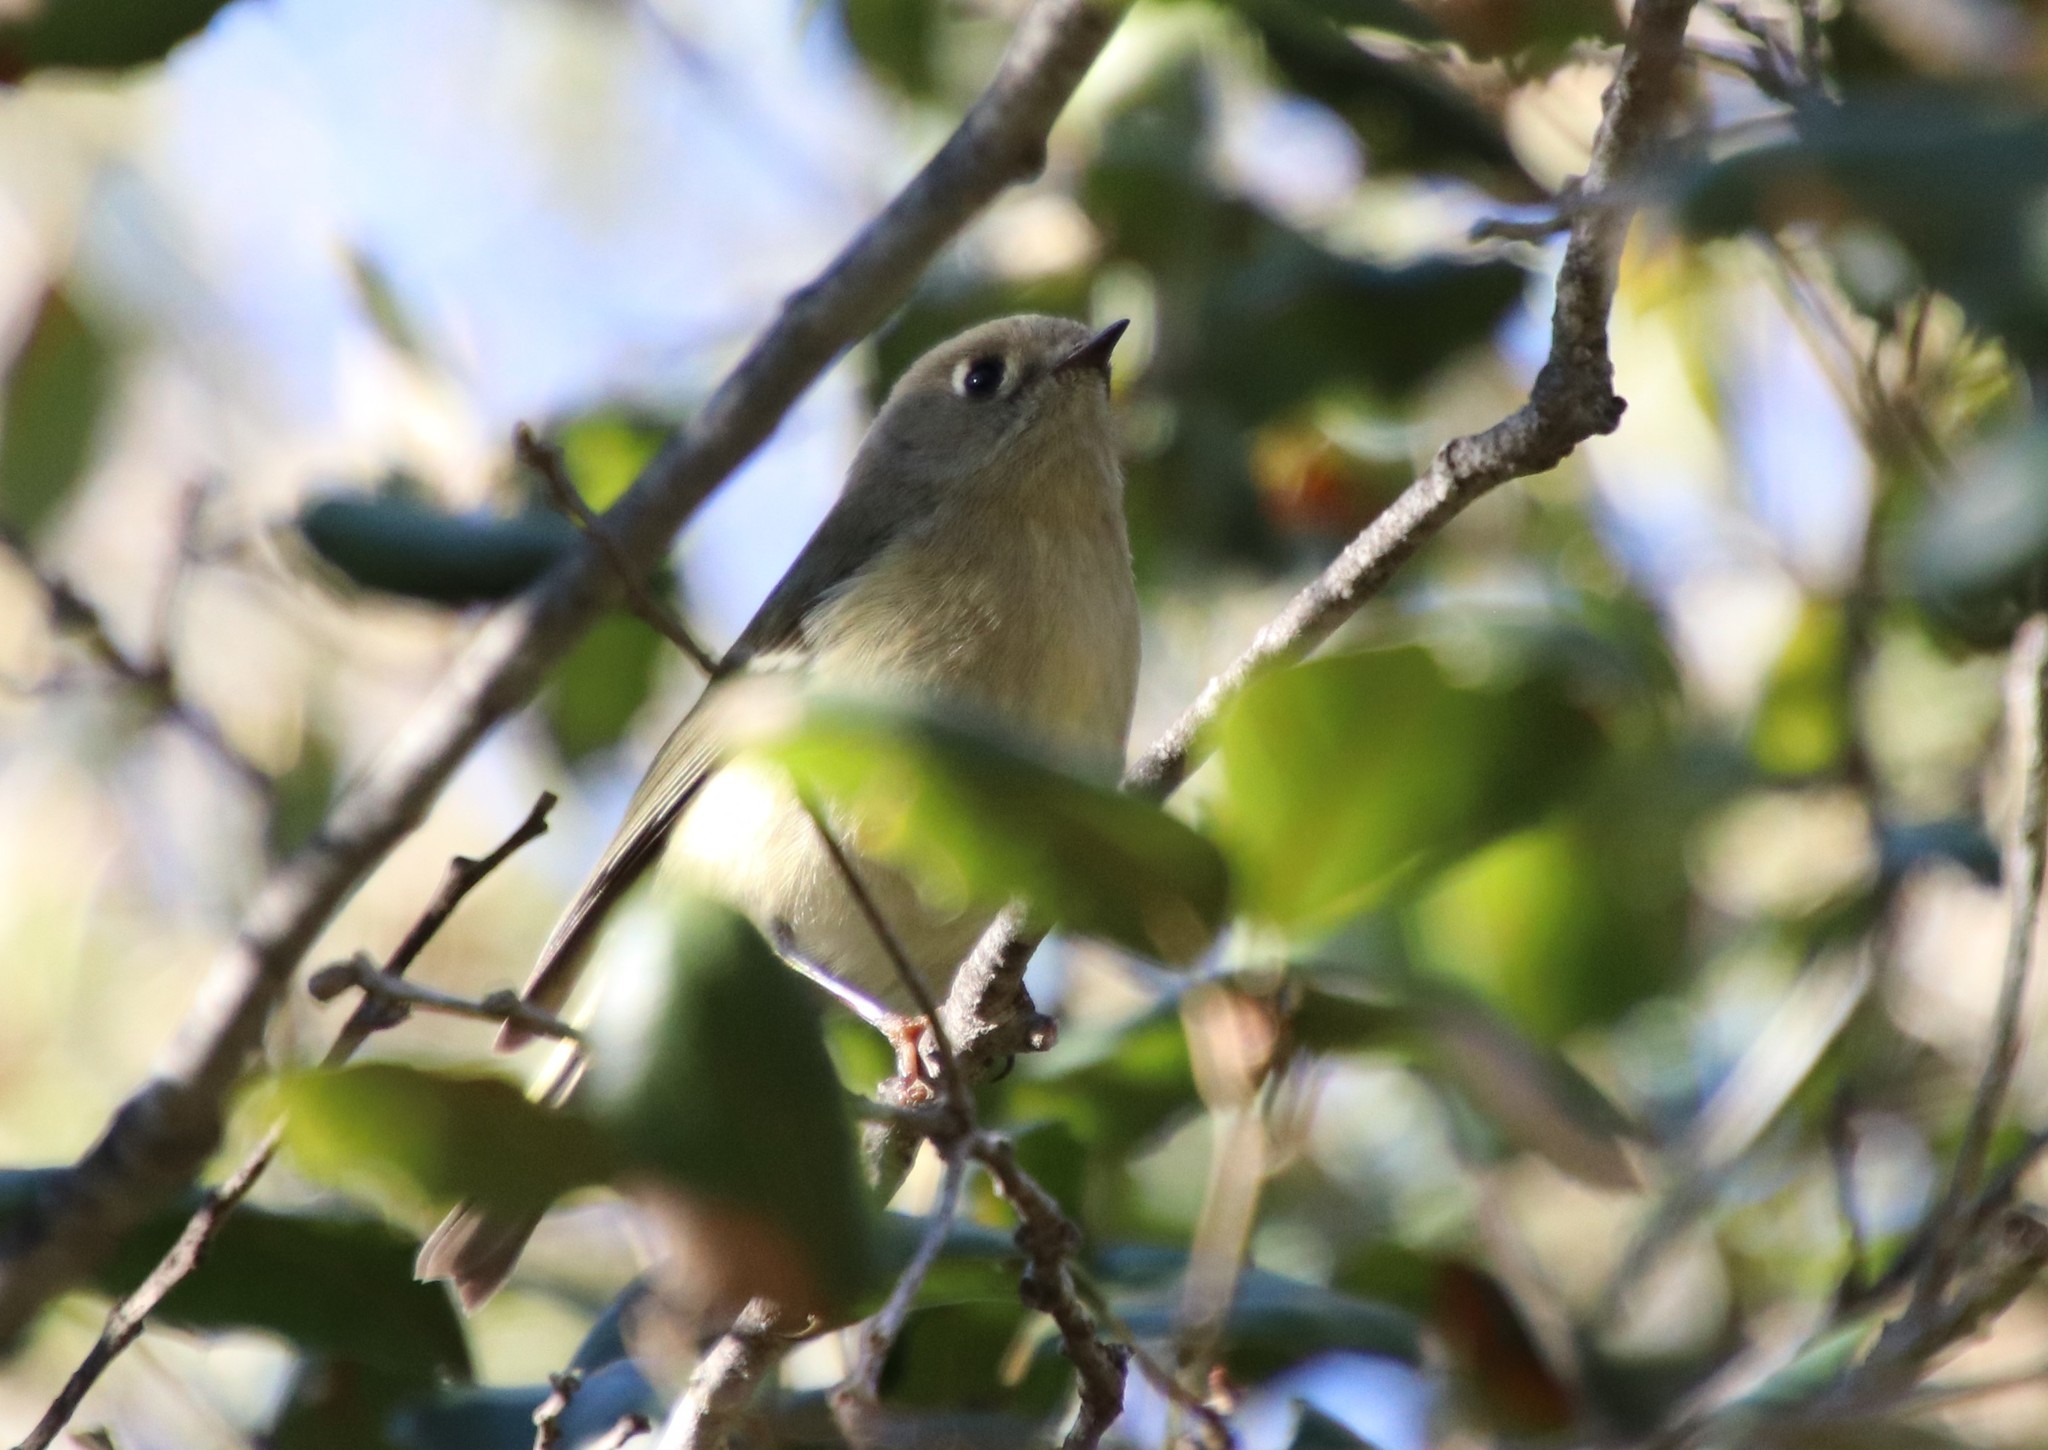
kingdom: Animalia
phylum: Chordata
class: Aves
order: Passeriformes
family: Regulidae
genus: Regulus
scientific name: Regulus calendula
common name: Ruby-crowned kinglet
